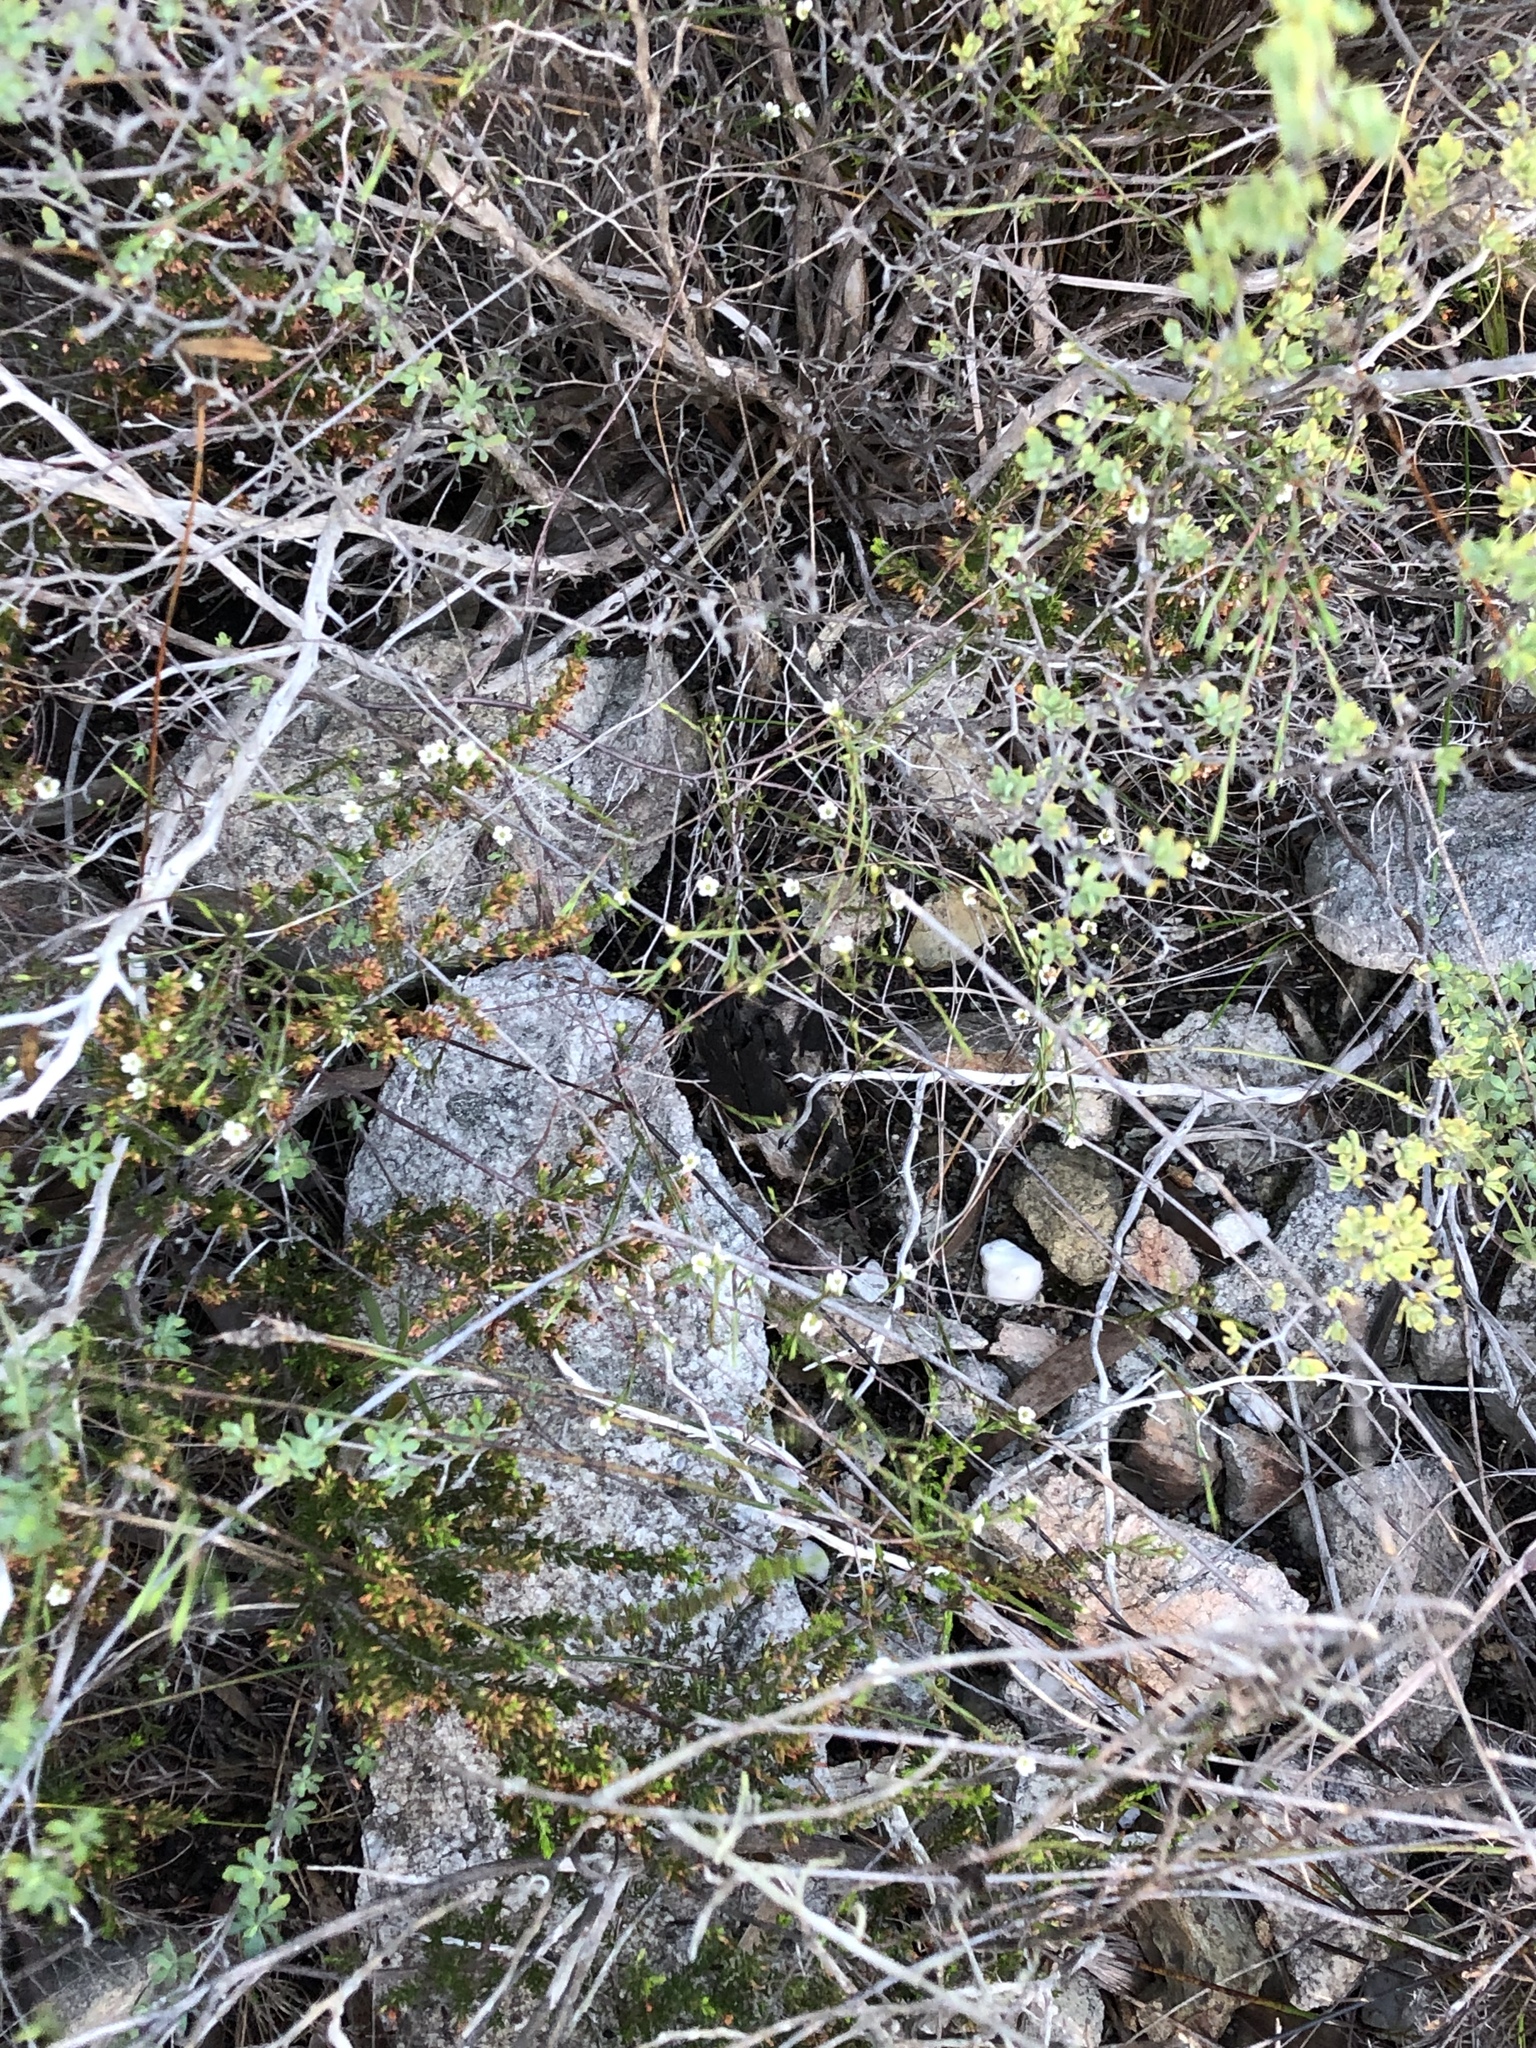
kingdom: Plantae
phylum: Tracheophyta
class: Magnoliopsida
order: Sapindales
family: Rutaceae
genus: Coleonema
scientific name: Coleonema juniperinum
